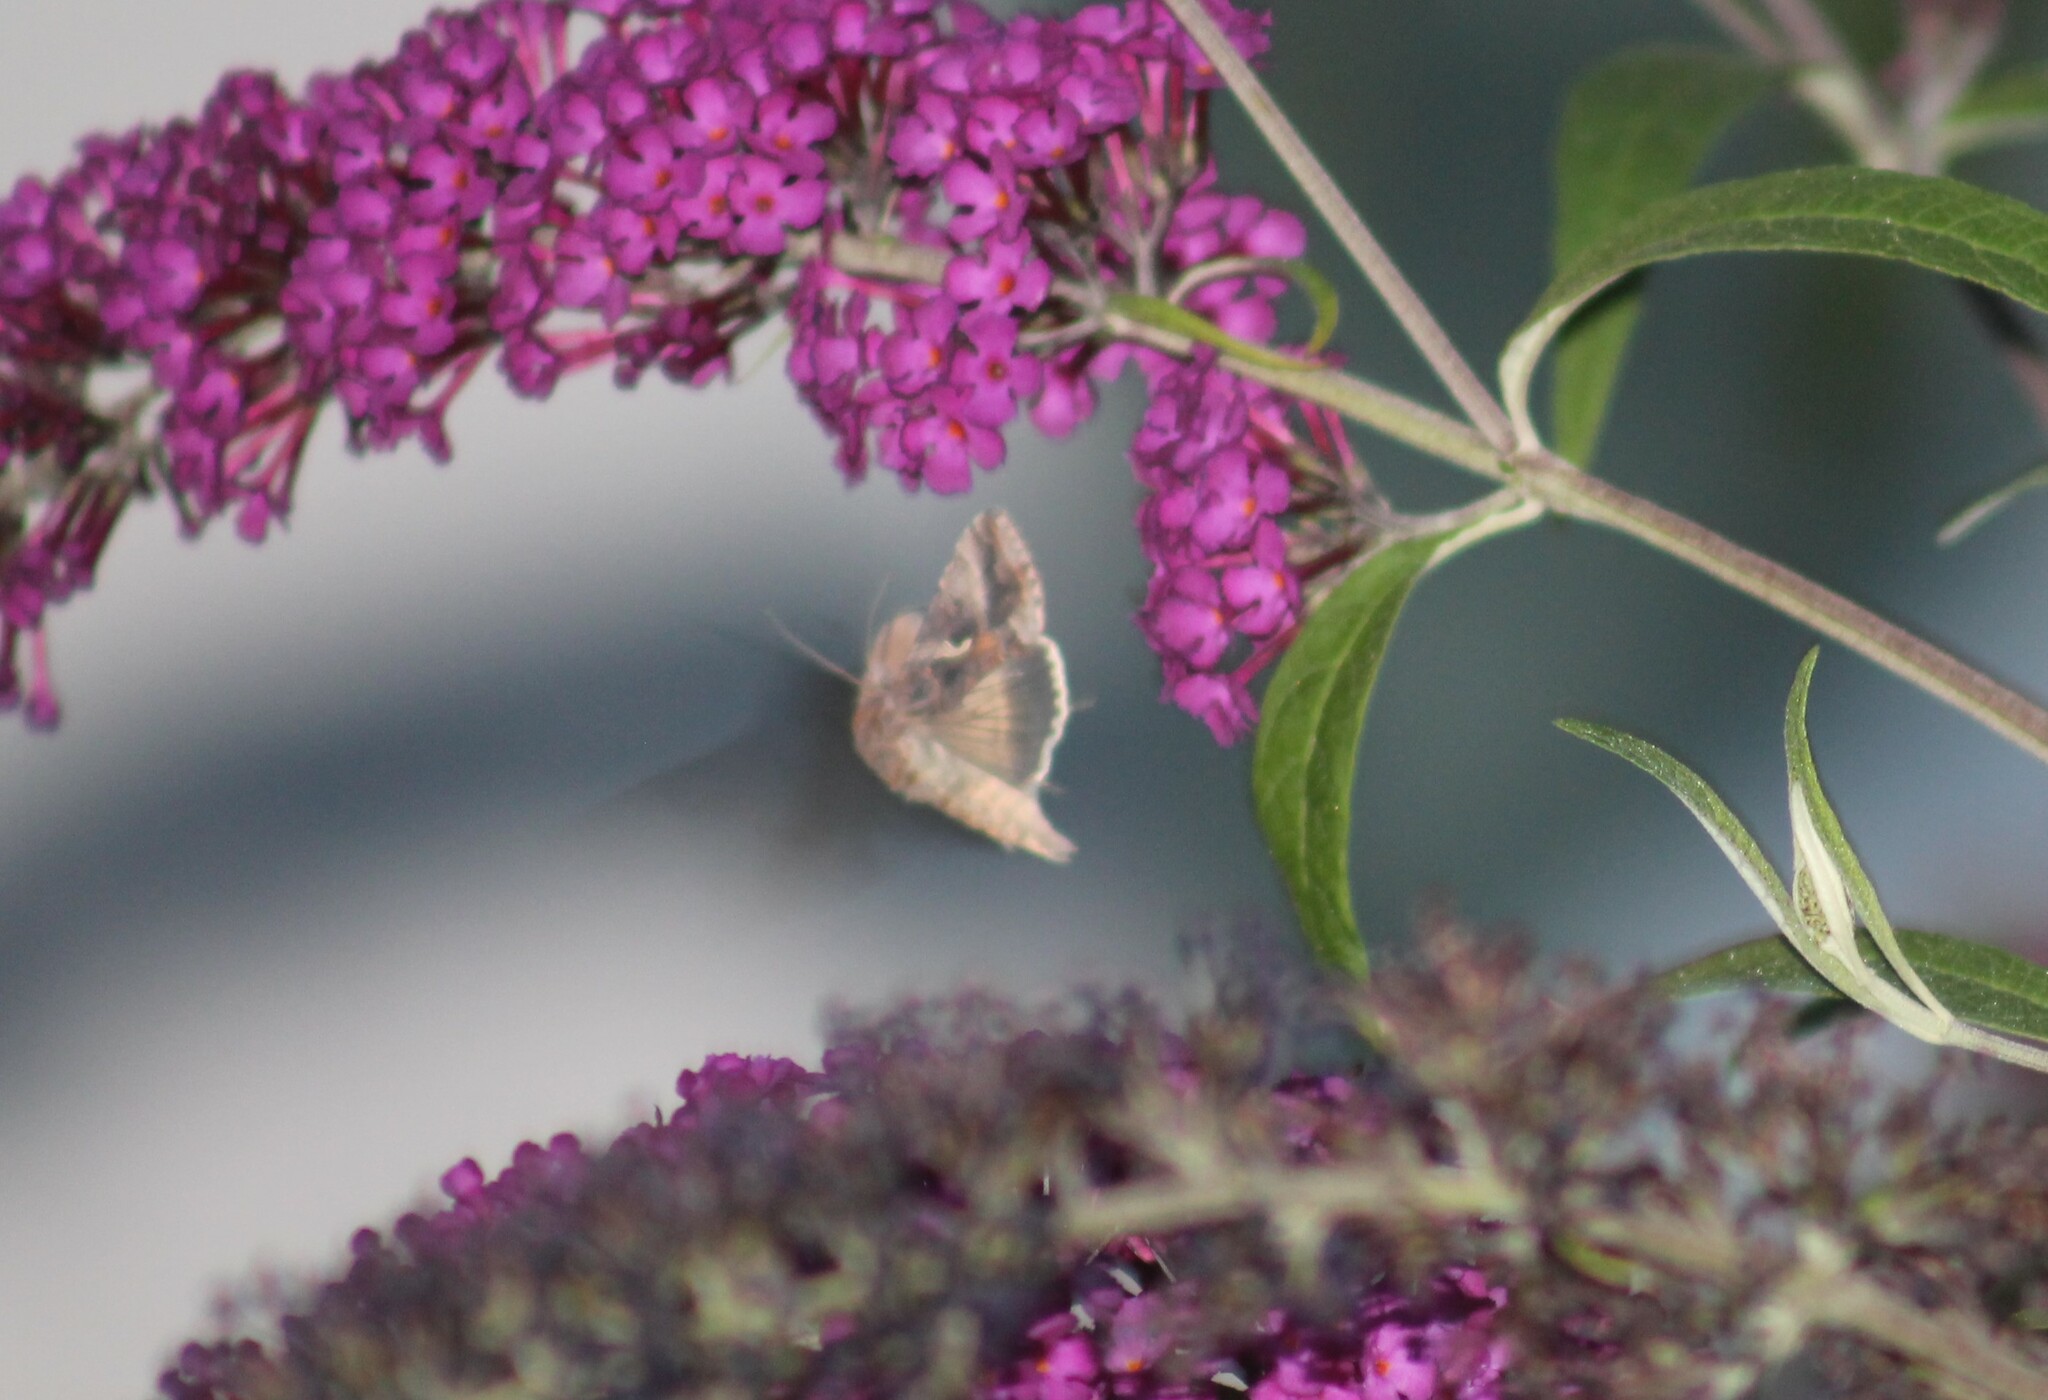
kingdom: Animalia
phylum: Arthropoda
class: Insecta
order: Lepidoptera
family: Noctuidae
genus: Autographa
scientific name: Autographa gamma
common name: Silver y
